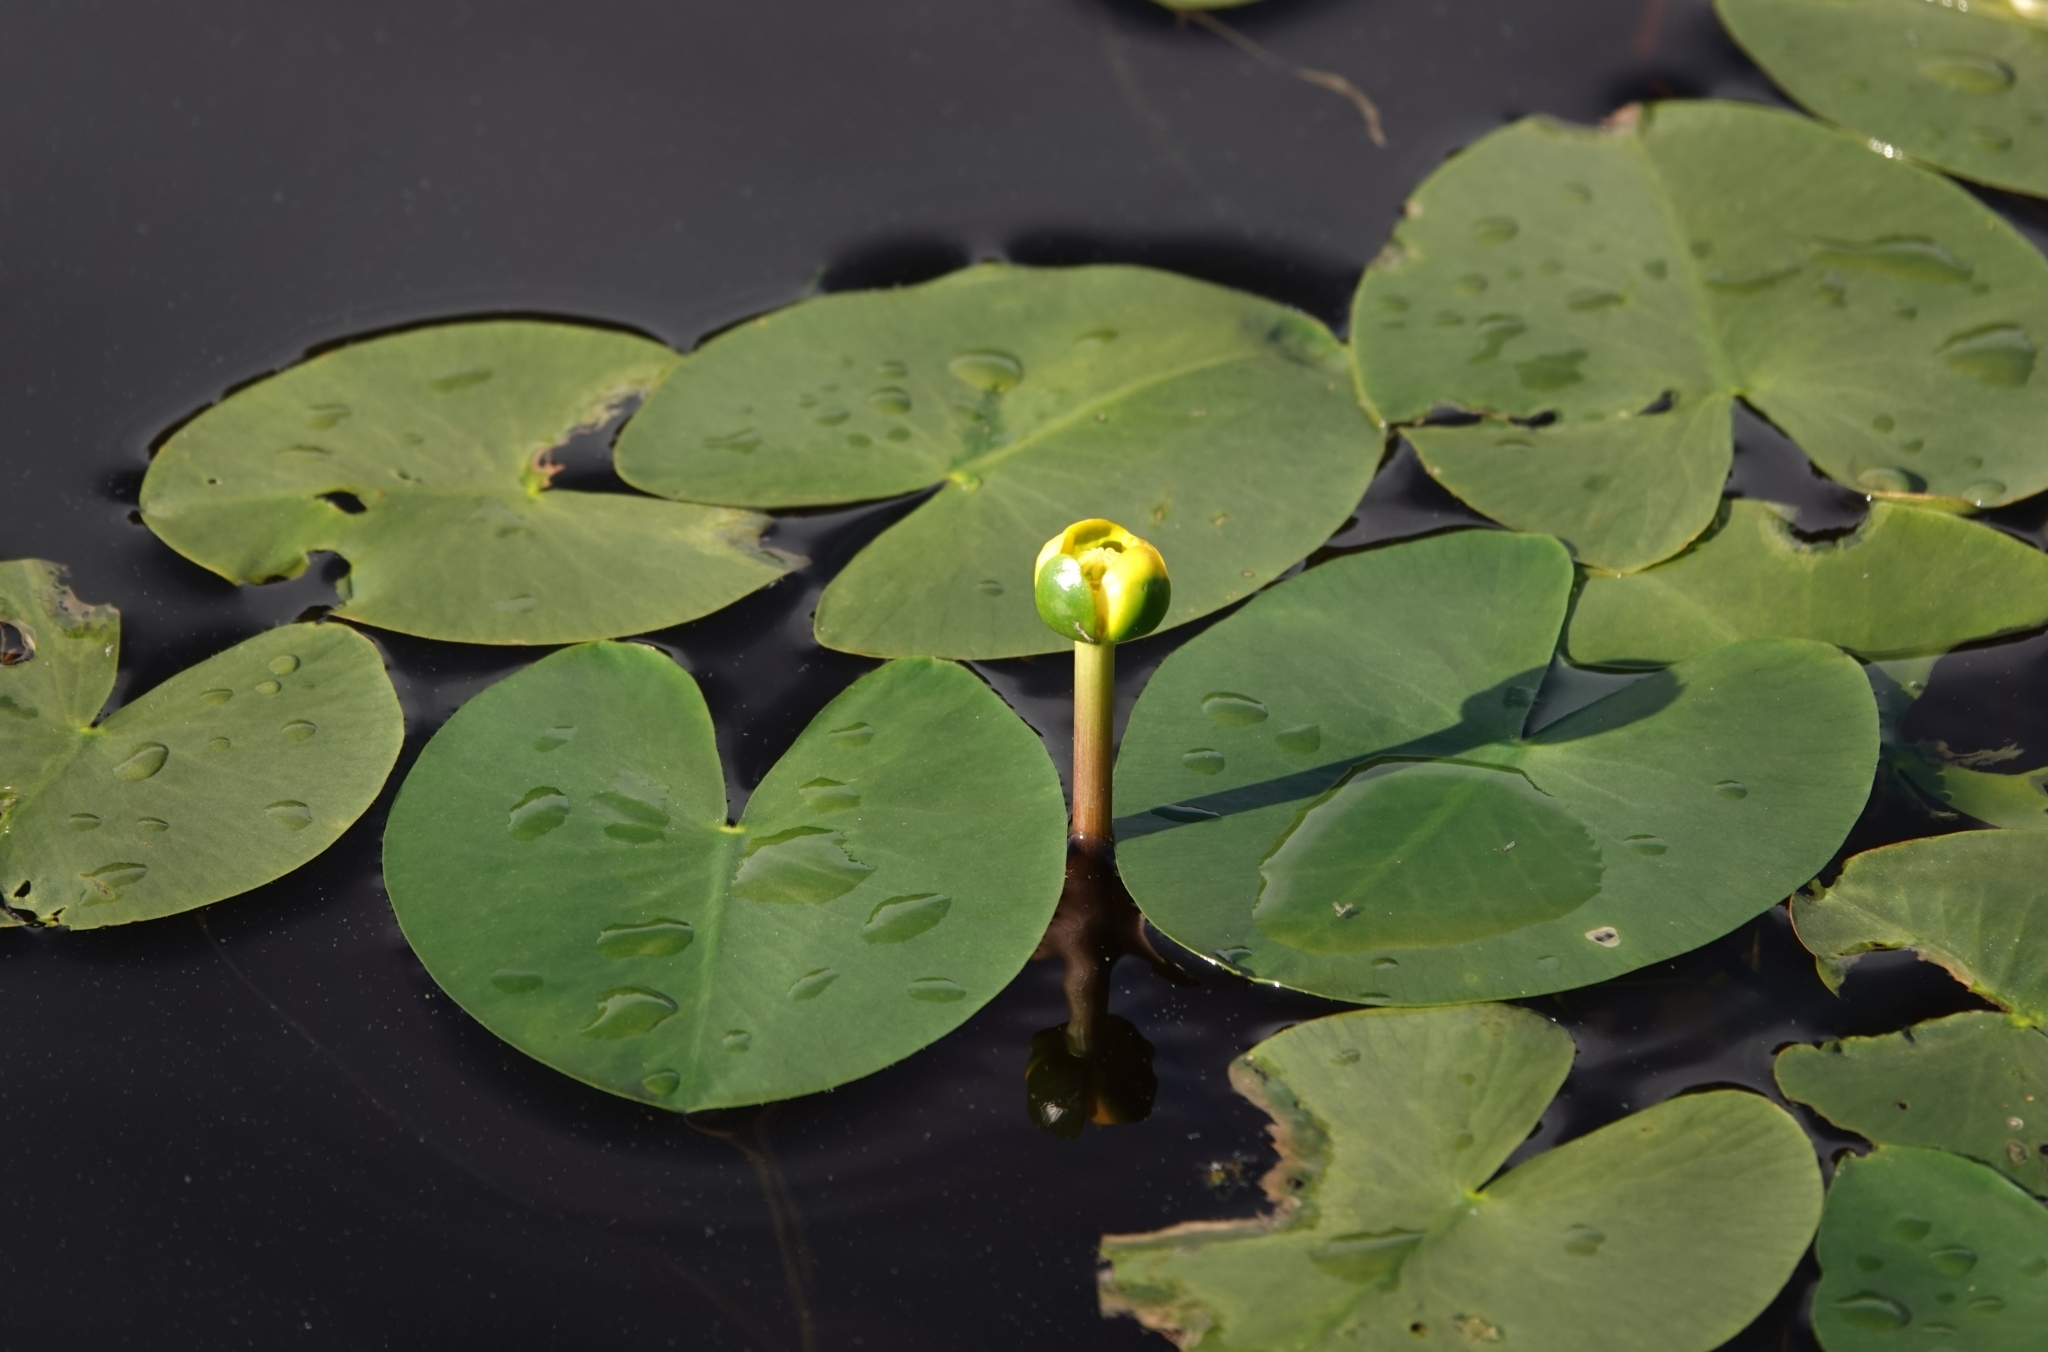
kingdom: Plantae
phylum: Tracheophyta
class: Magnoliopsida
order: Nymphaeales
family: Nymphaeaceae
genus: Nuphar
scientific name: Nuphar lutea
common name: Yellow water-lily
